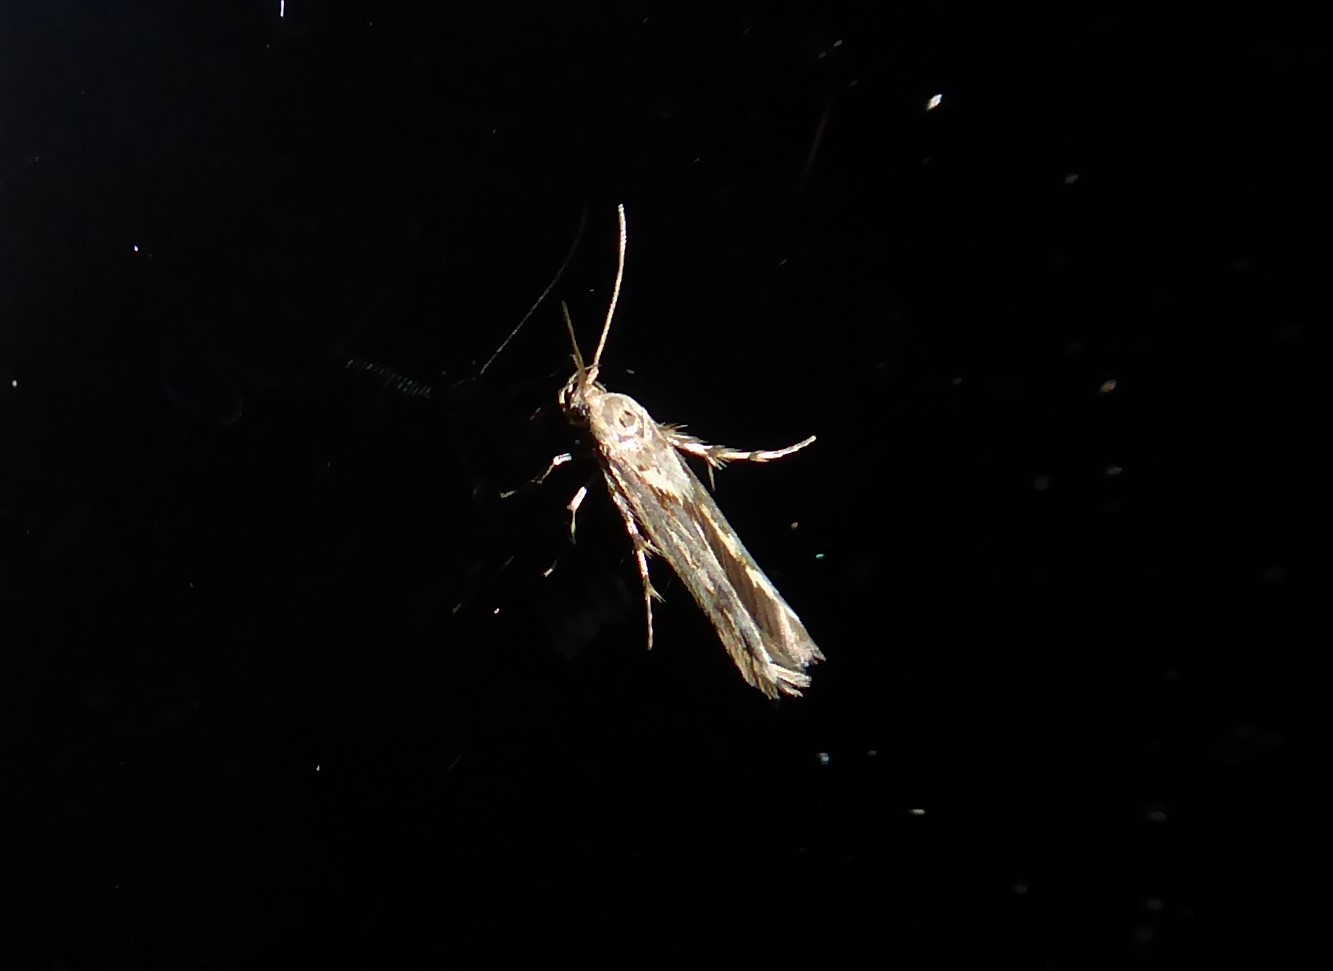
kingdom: Animalia
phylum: Arthropoda
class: Insecta
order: Lepidoptera
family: Stathmopodidae
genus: Stathmopoda
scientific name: Stathmopoda plumbiflua
